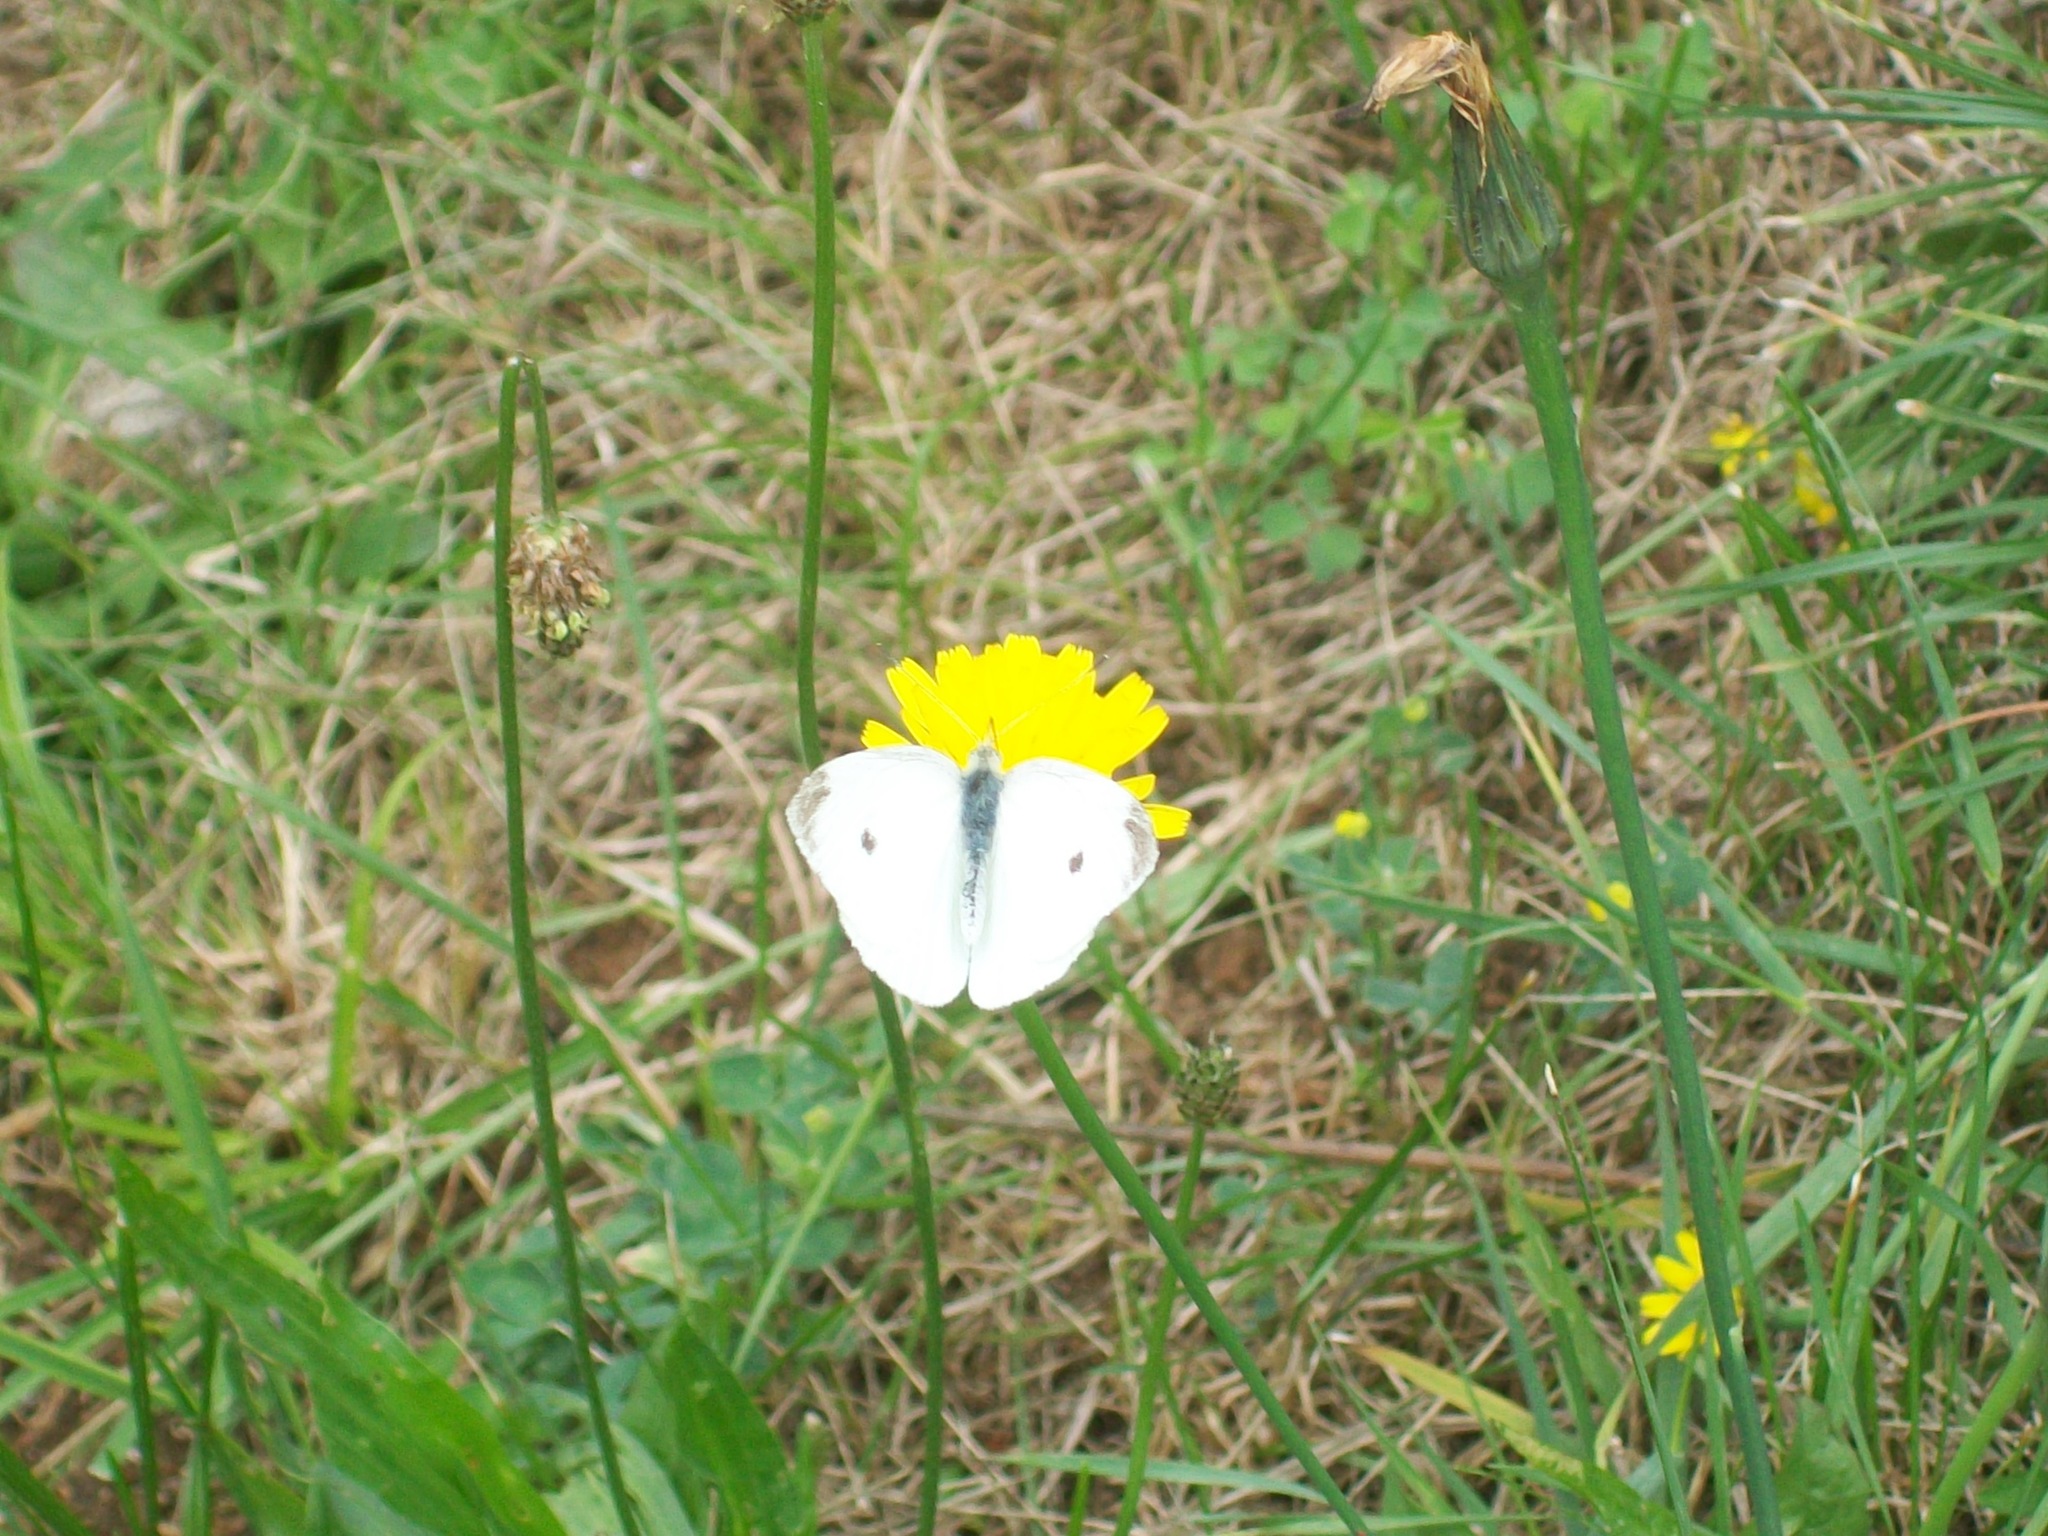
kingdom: Animalia
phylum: Arthropoda
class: Insecta
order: Lepidoptera
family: Pieridae
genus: Pieris
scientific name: Pieris rapae
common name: Small white
